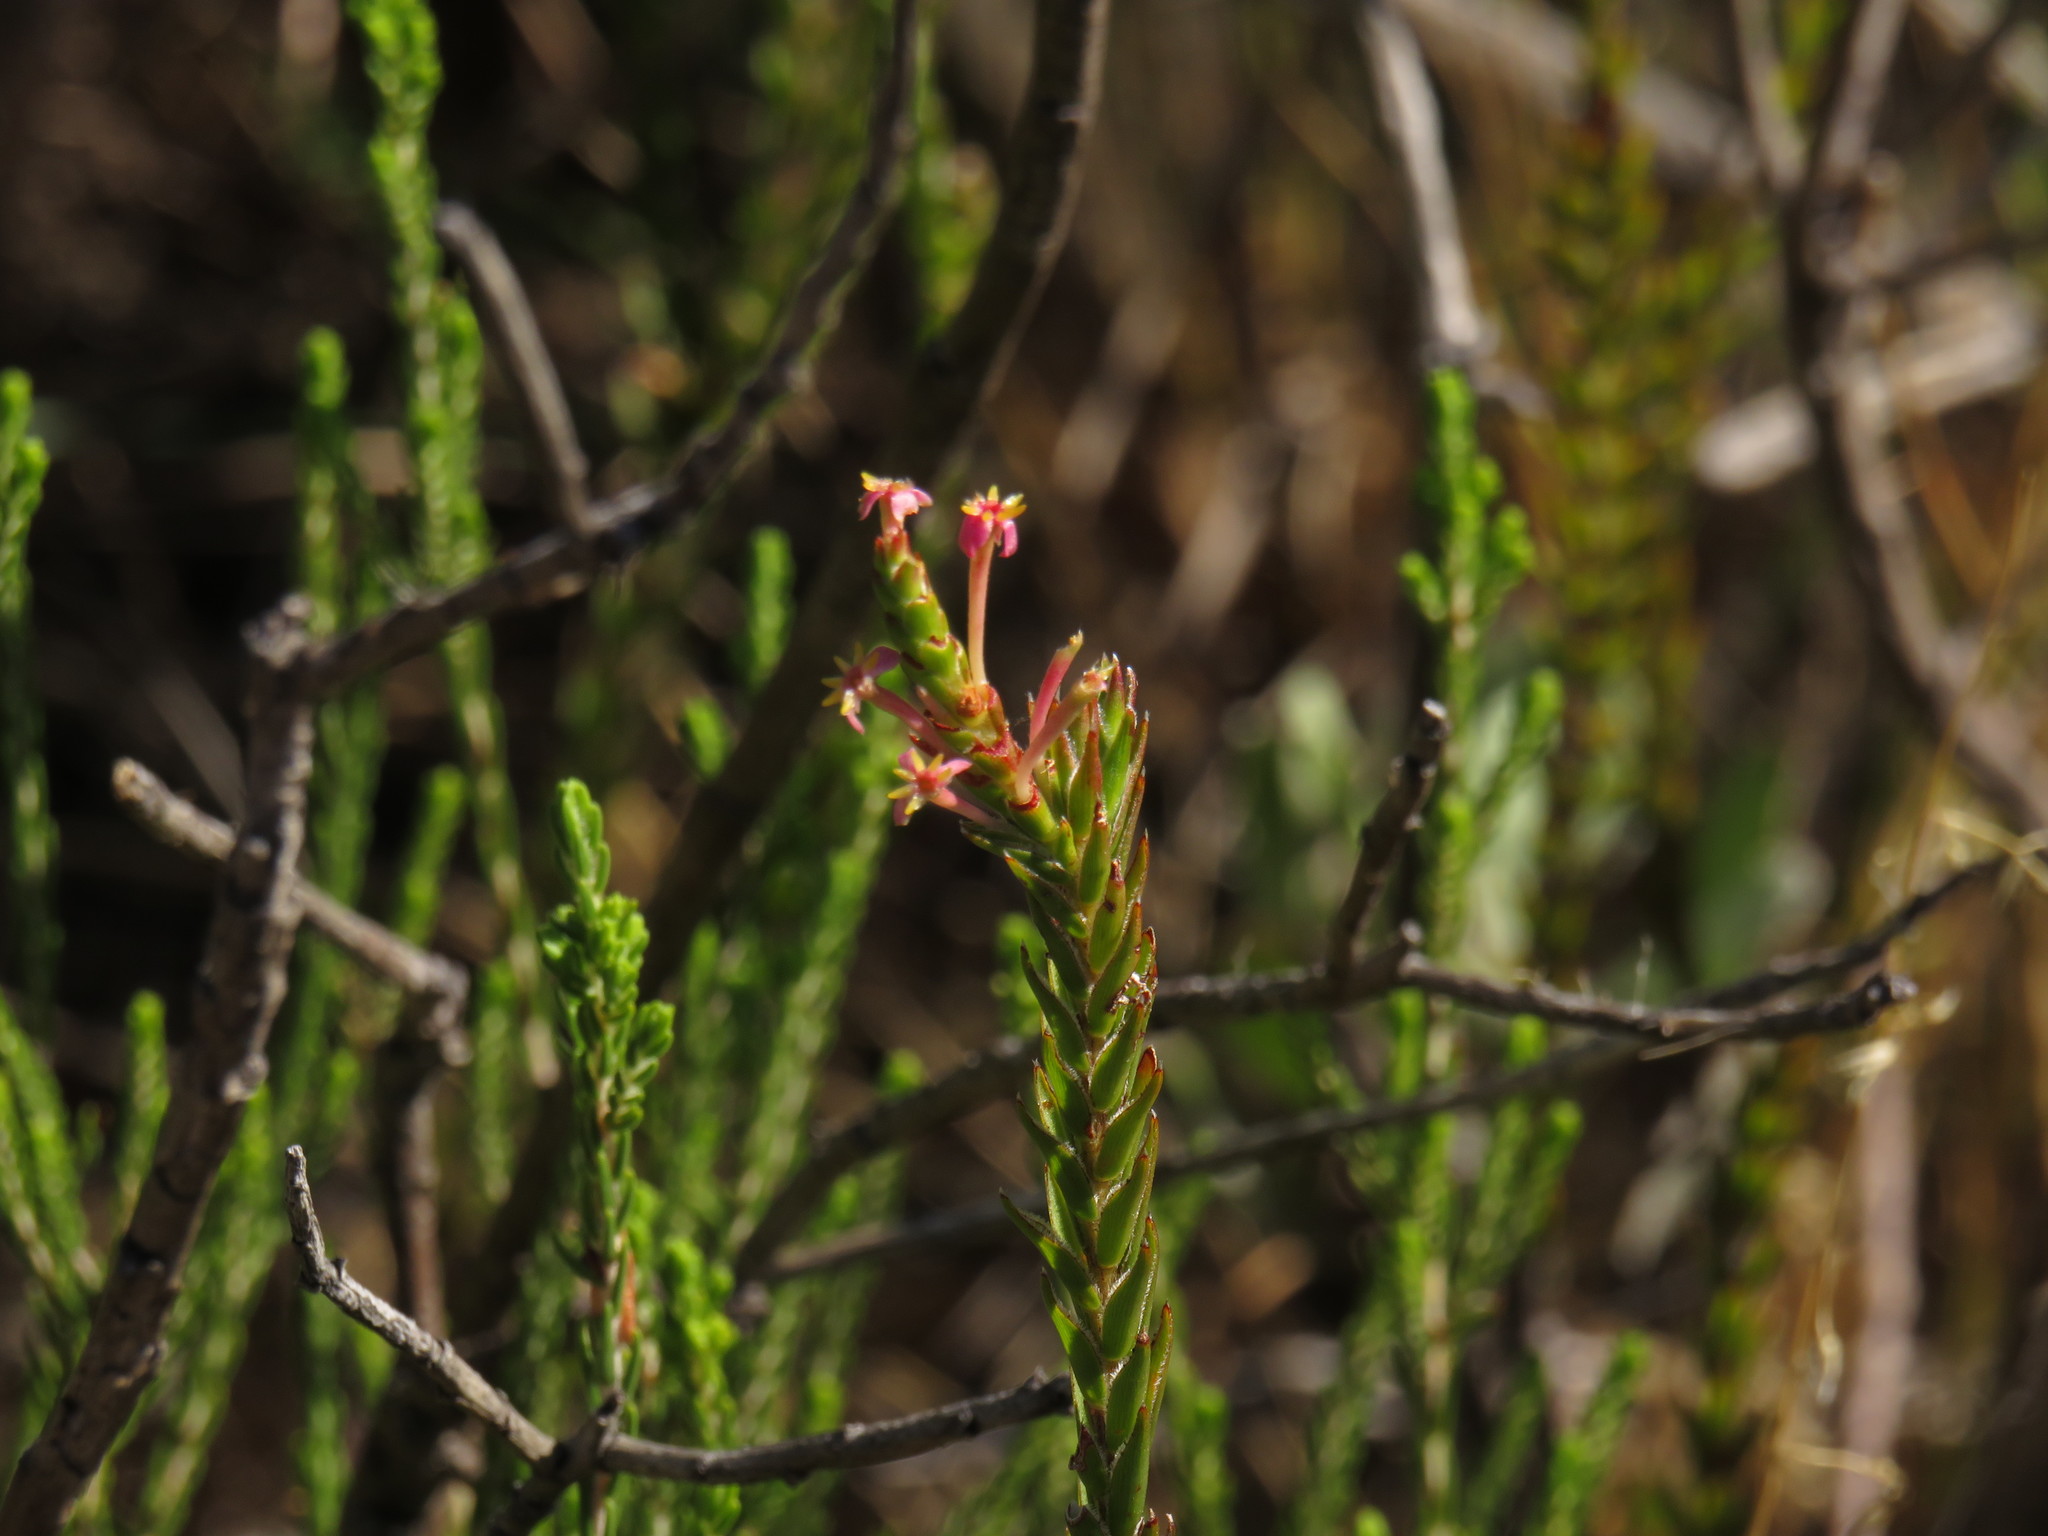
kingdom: Plantae
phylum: Tracheophyta
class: Magnoliopsida
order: Malvales
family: Thymelaeaceae
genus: Struthiola
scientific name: Struthiola ciliata
